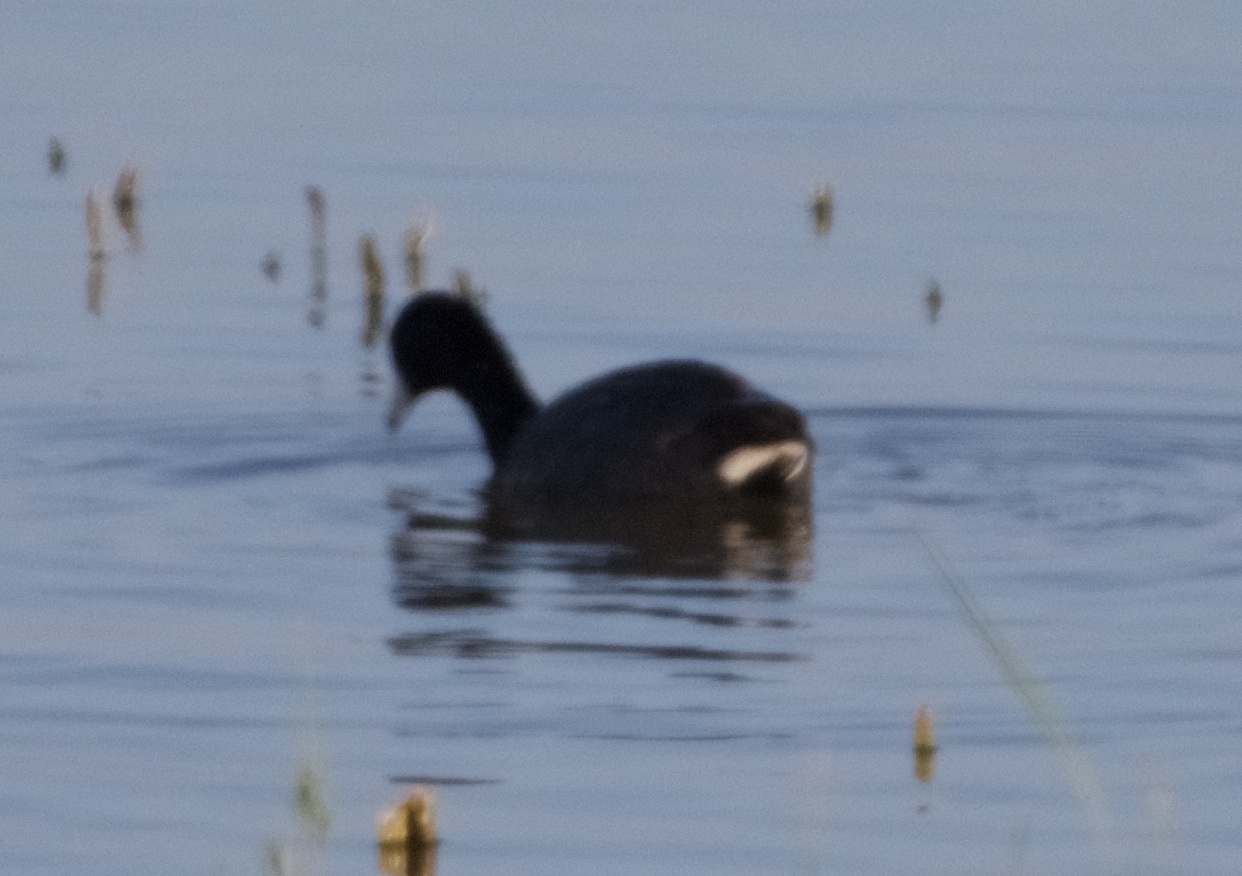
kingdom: Animalia
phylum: Chordata
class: Aves
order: Gruiformes
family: Rallidae
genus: Fulica
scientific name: Fulica americana
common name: American coot
